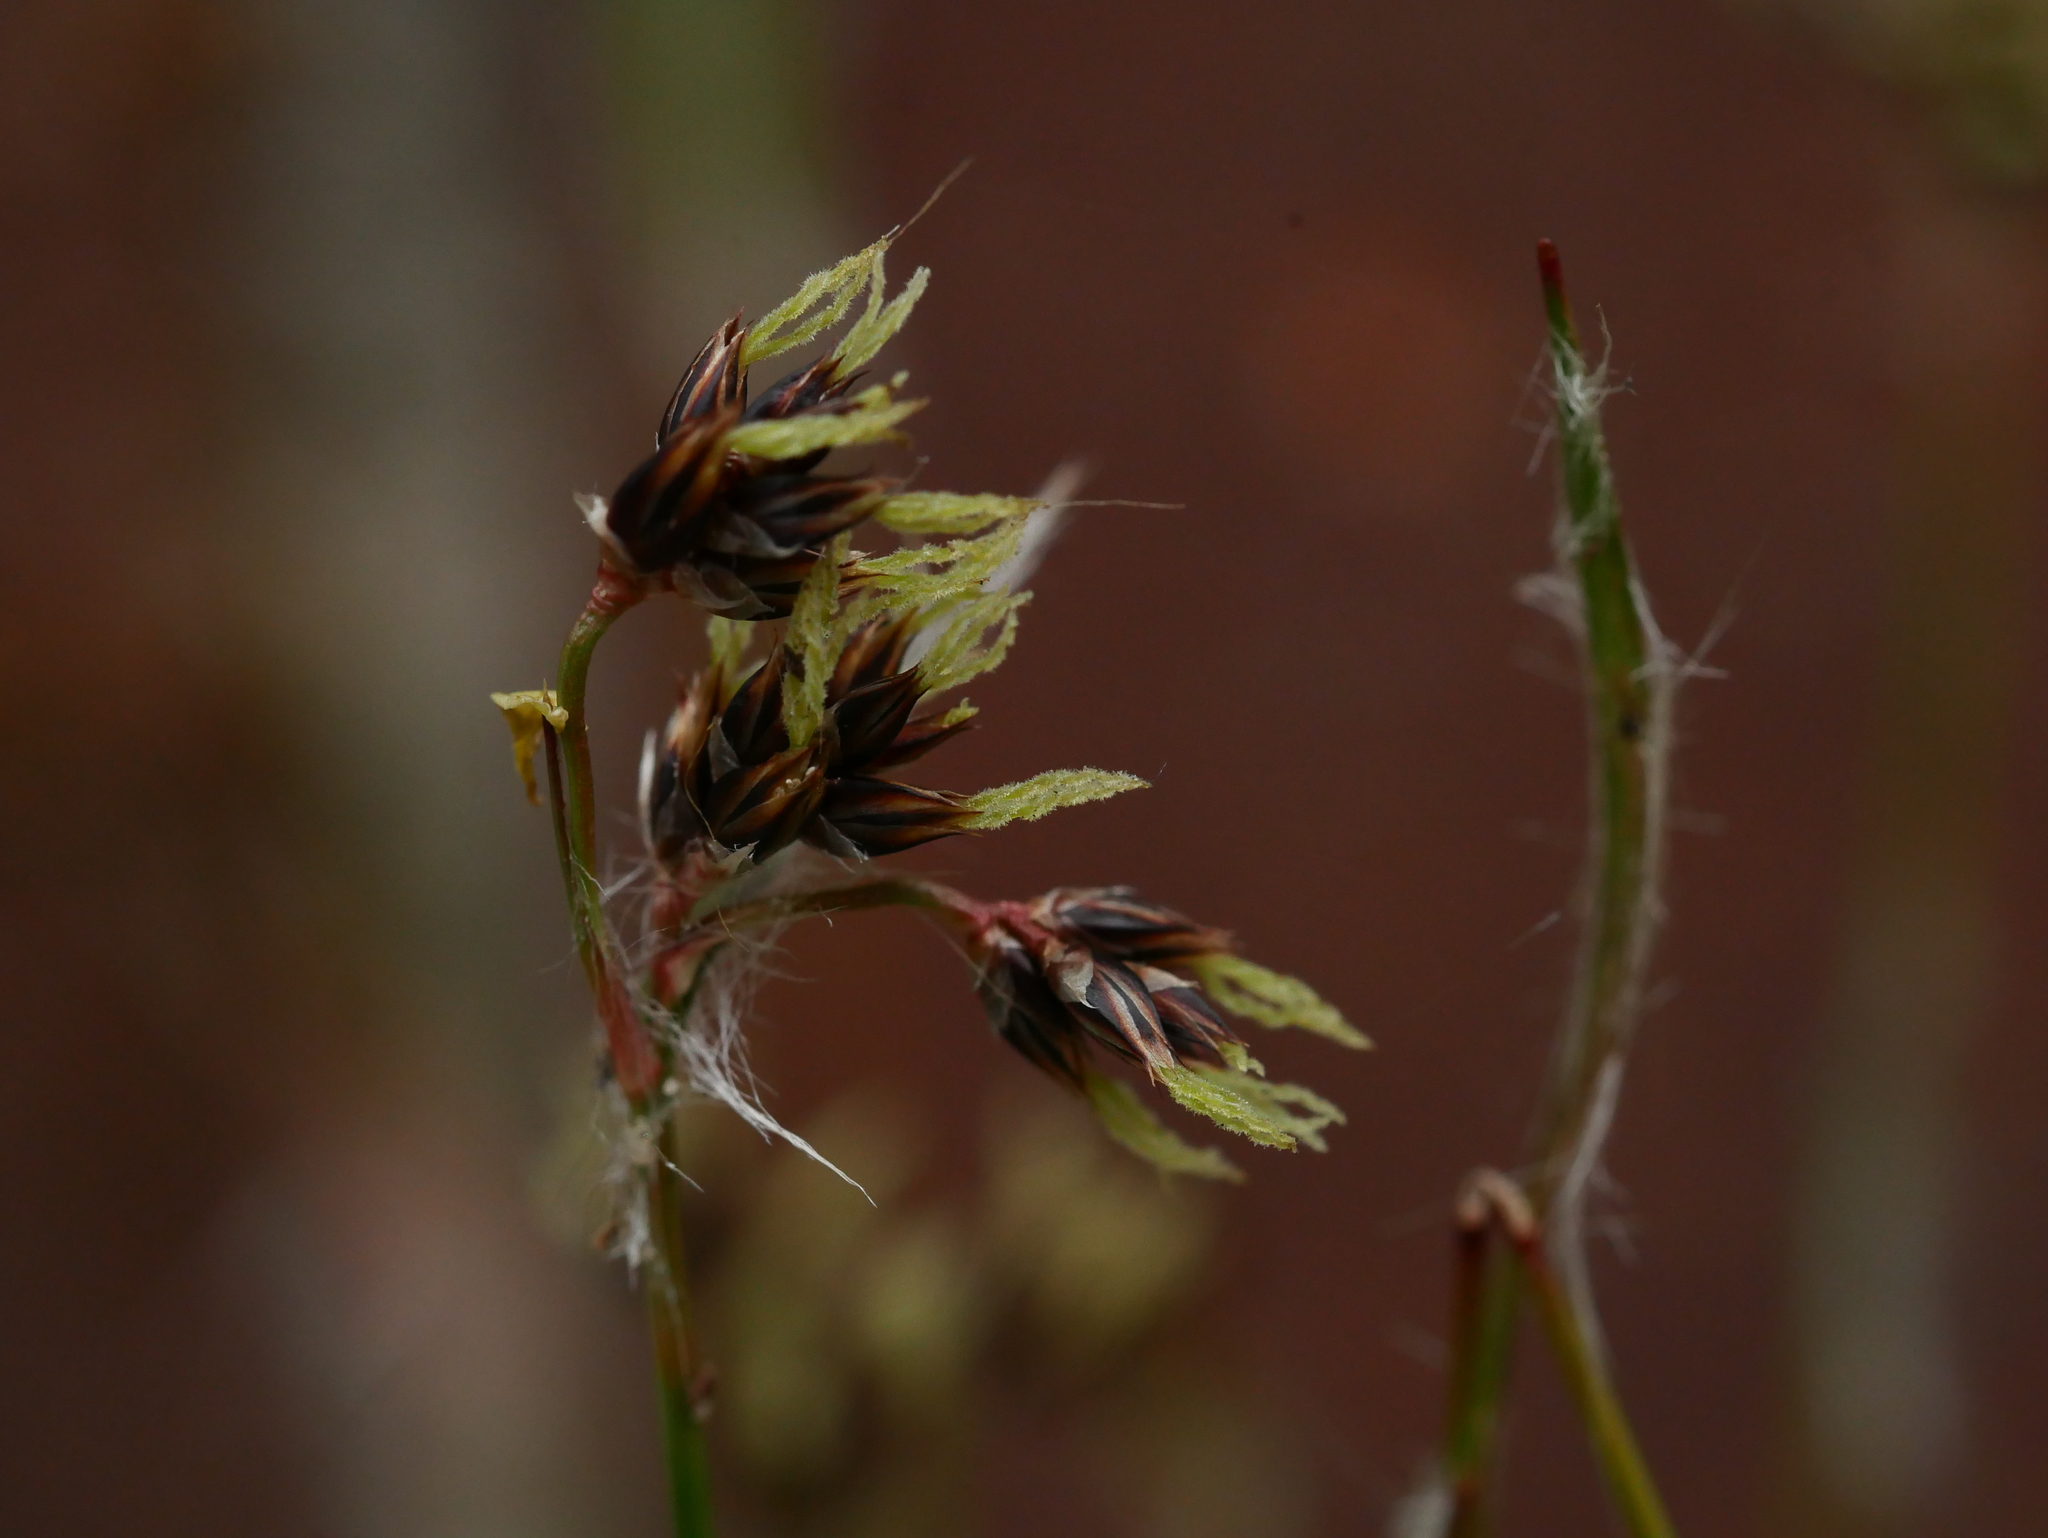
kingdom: Plantae
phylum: Tracheophyta
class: Liliopsida
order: Poales
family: Juncaceae
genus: Luzula
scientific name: Luzula campestris
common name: Field wood-rush
